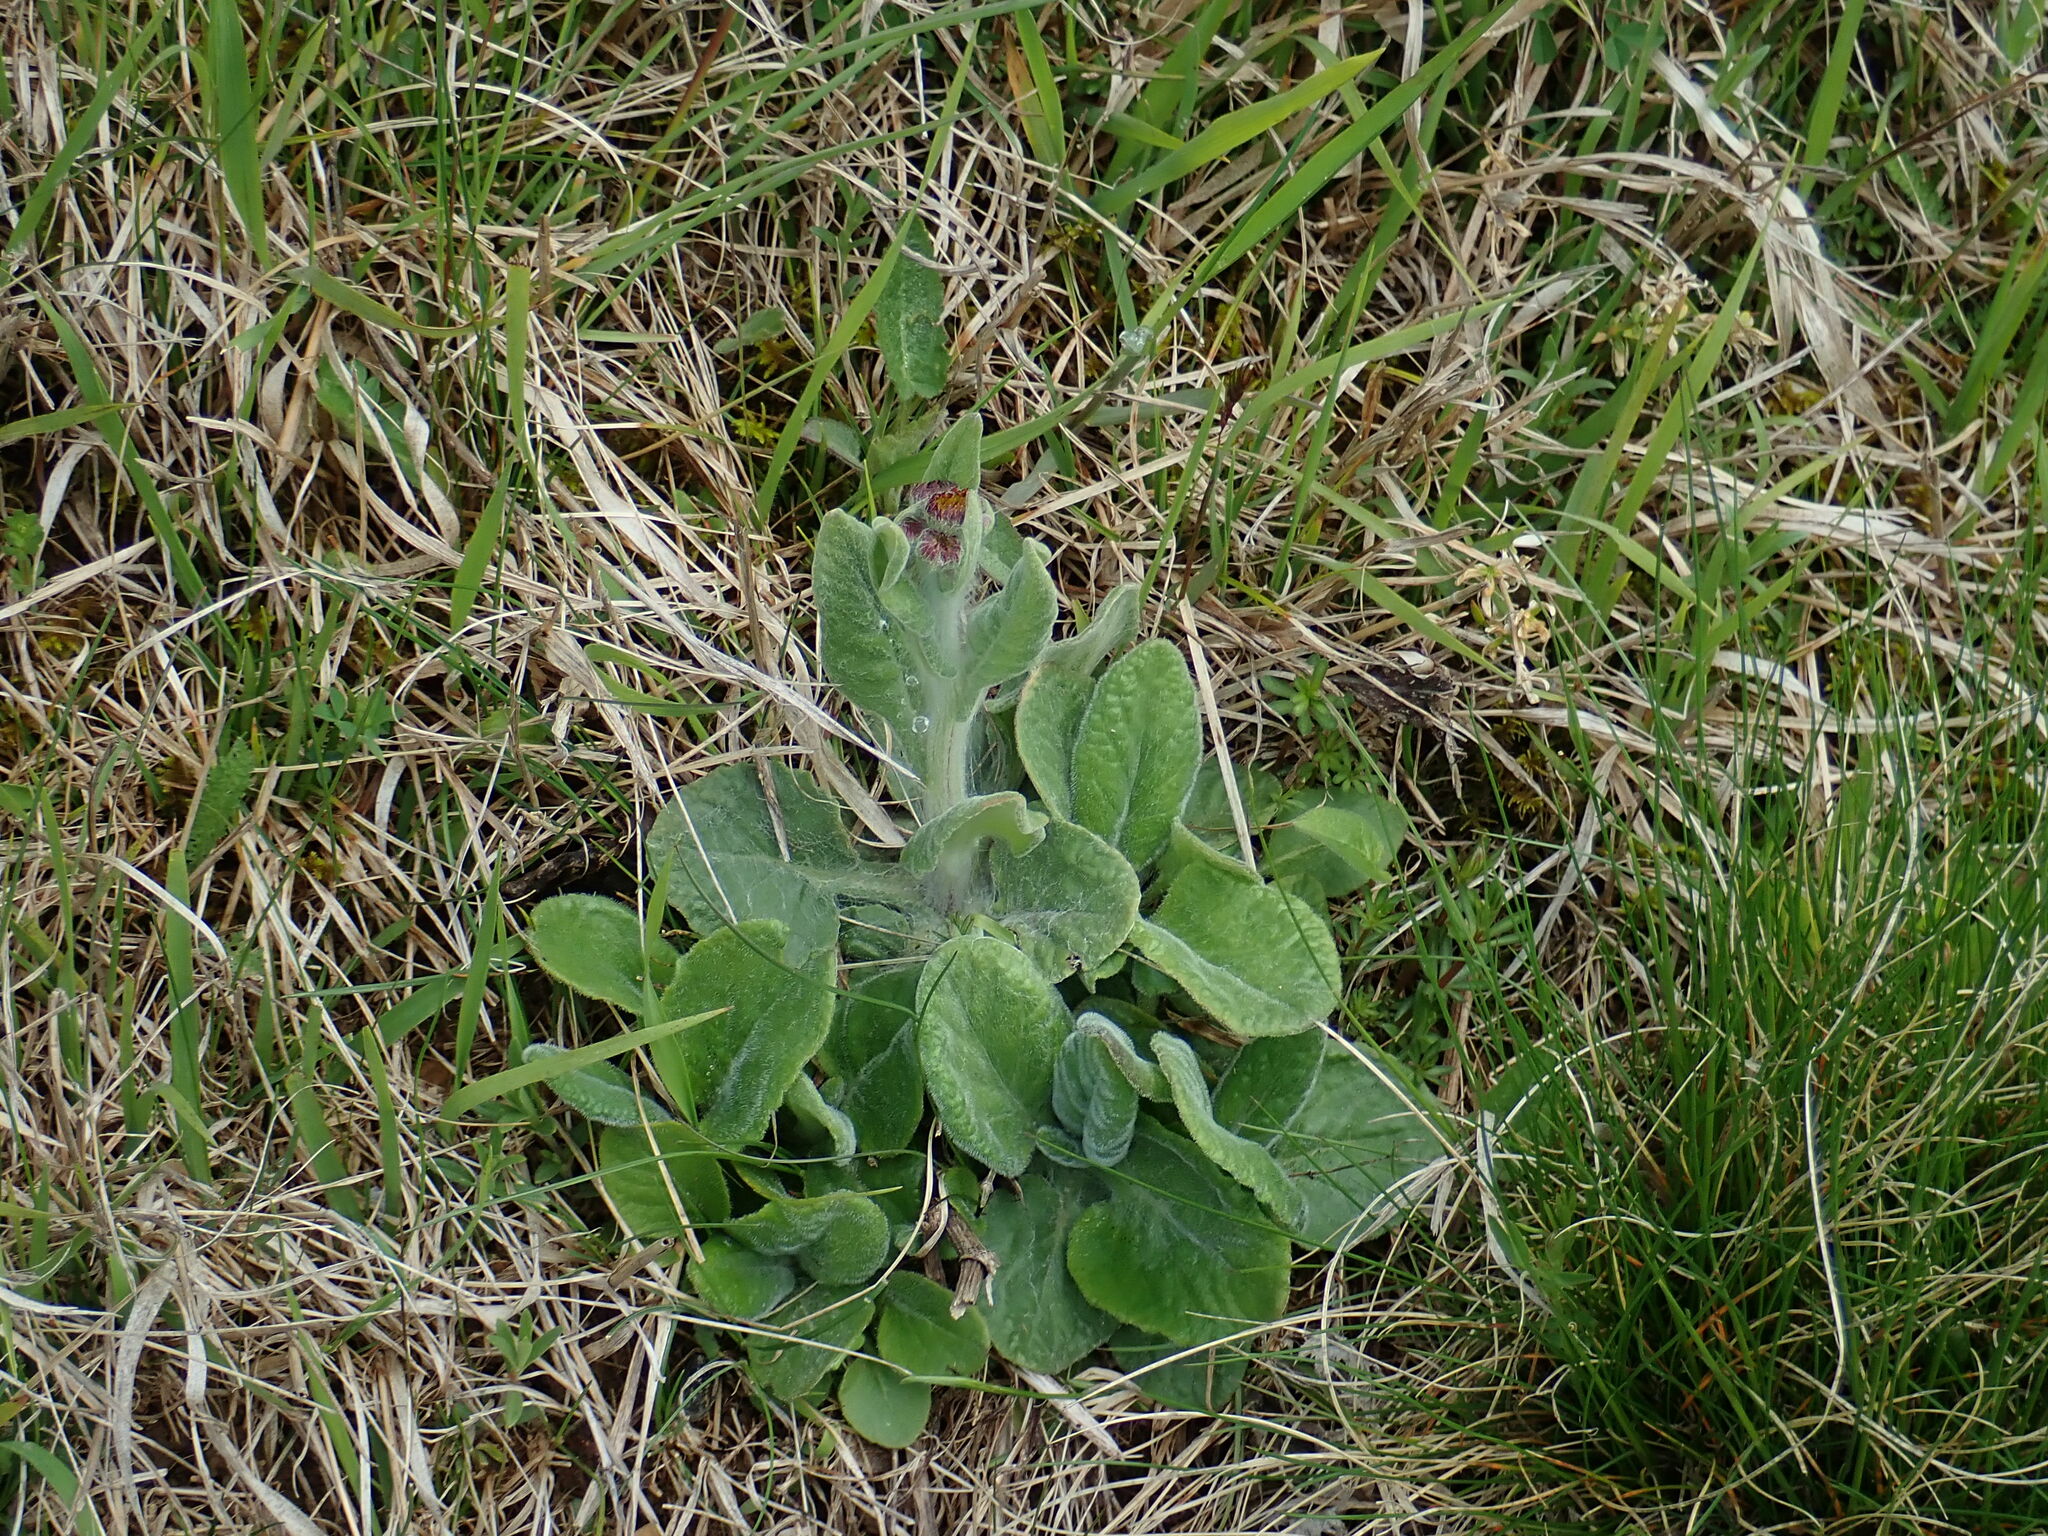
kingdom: Plantae
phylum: Tracheophyta
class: Magnoliopsida
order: Asterales
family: Asteraceae
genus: Tephroseris
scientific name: Tephroseris longifolia
